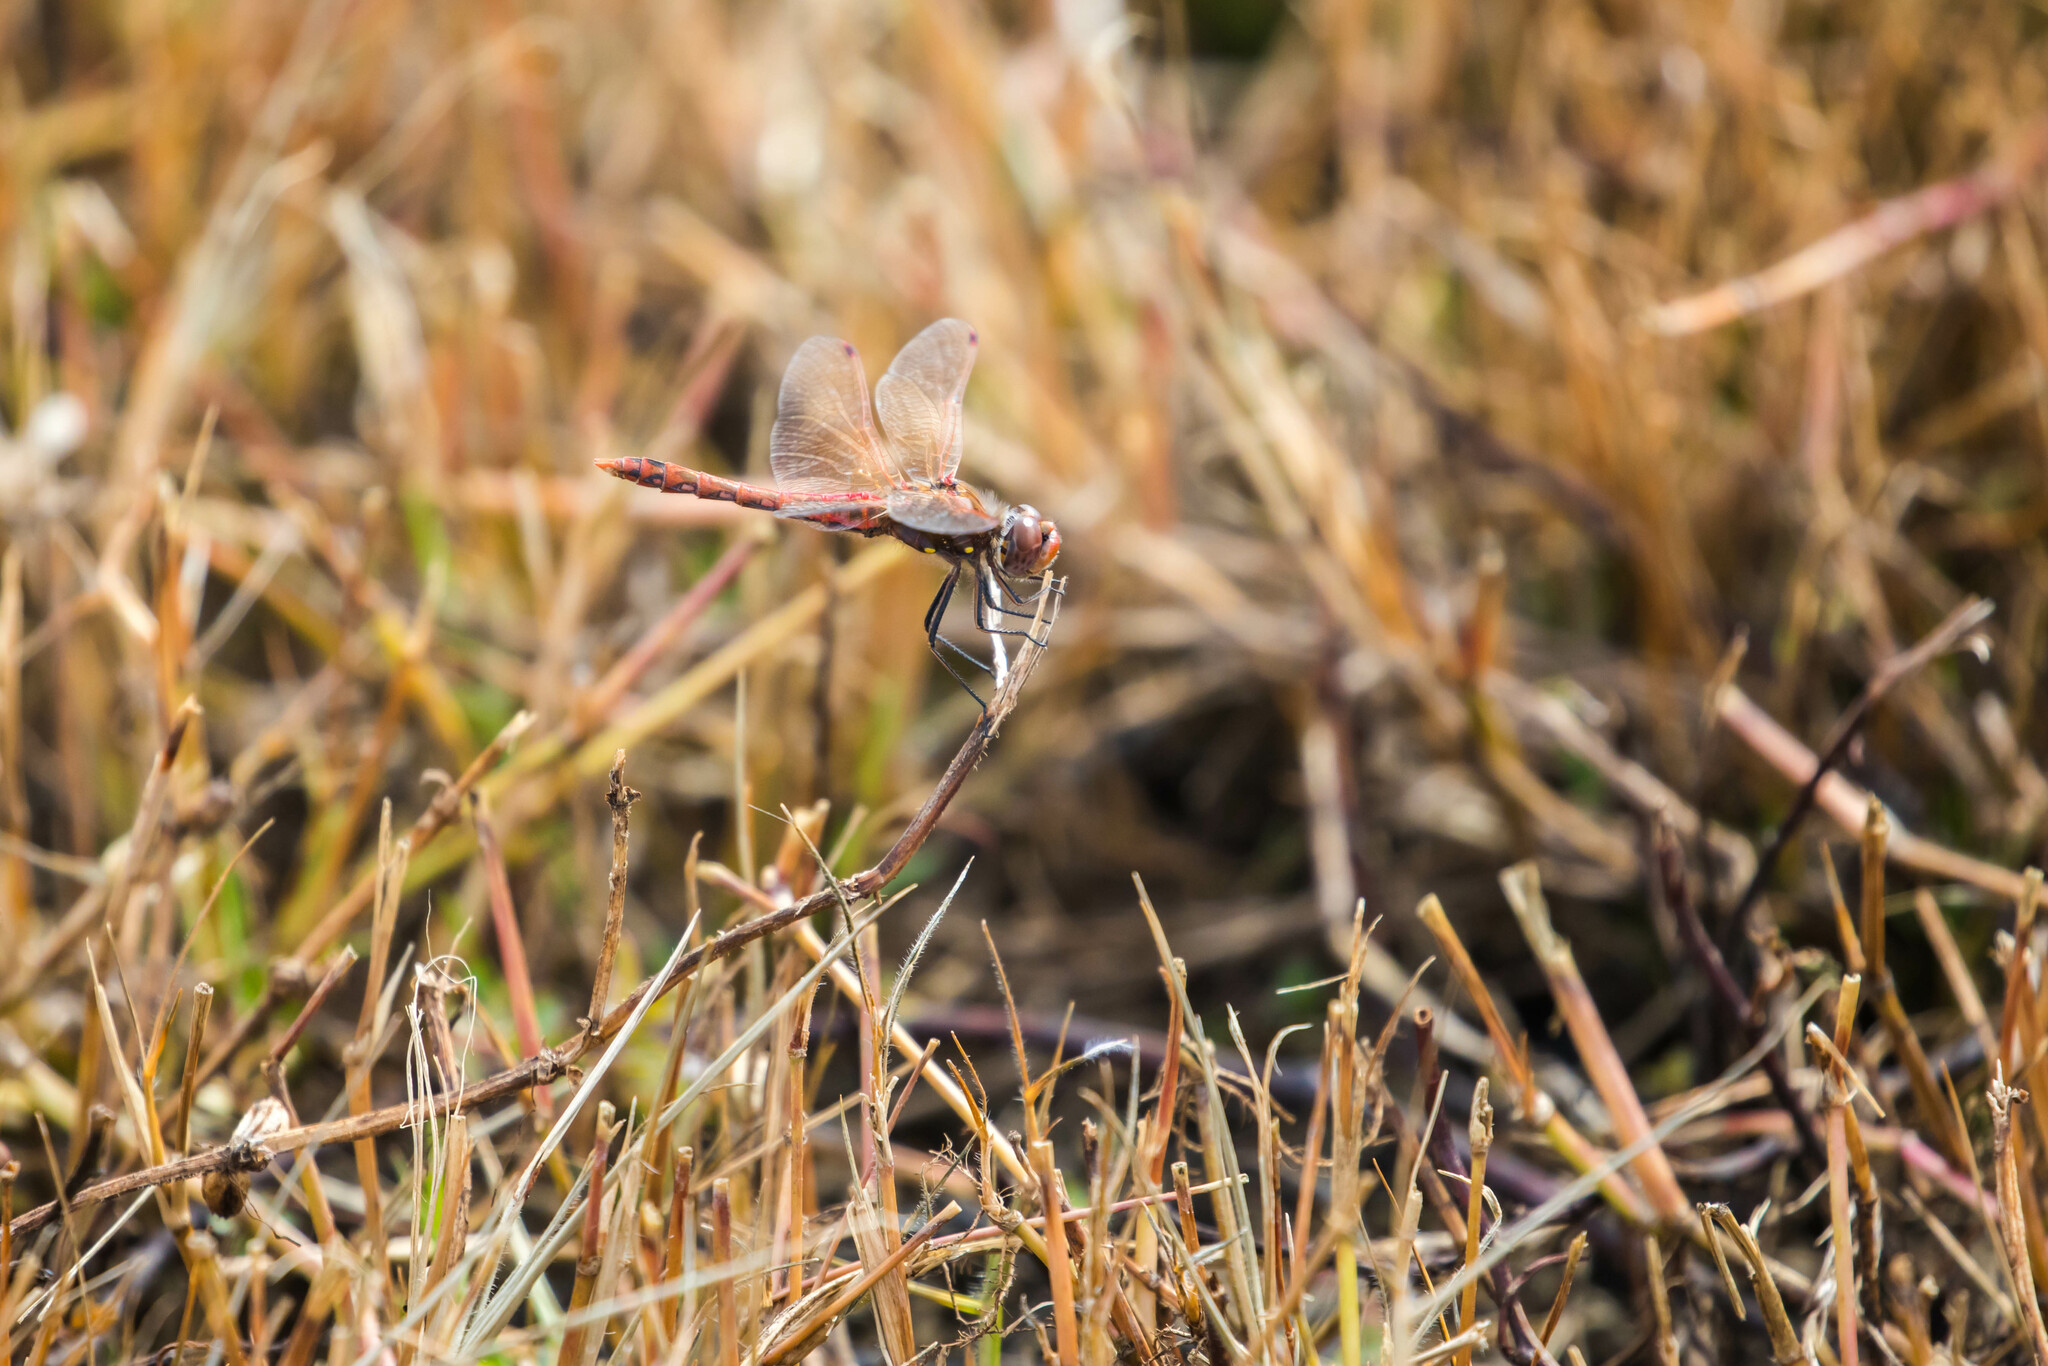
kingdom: Animalia
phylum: Arthropoda
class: Insecta
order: Odonata
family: Libellulidae
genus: Sympetrum
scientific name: Sympetrum corruptum
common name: Variegated meadowhawk
